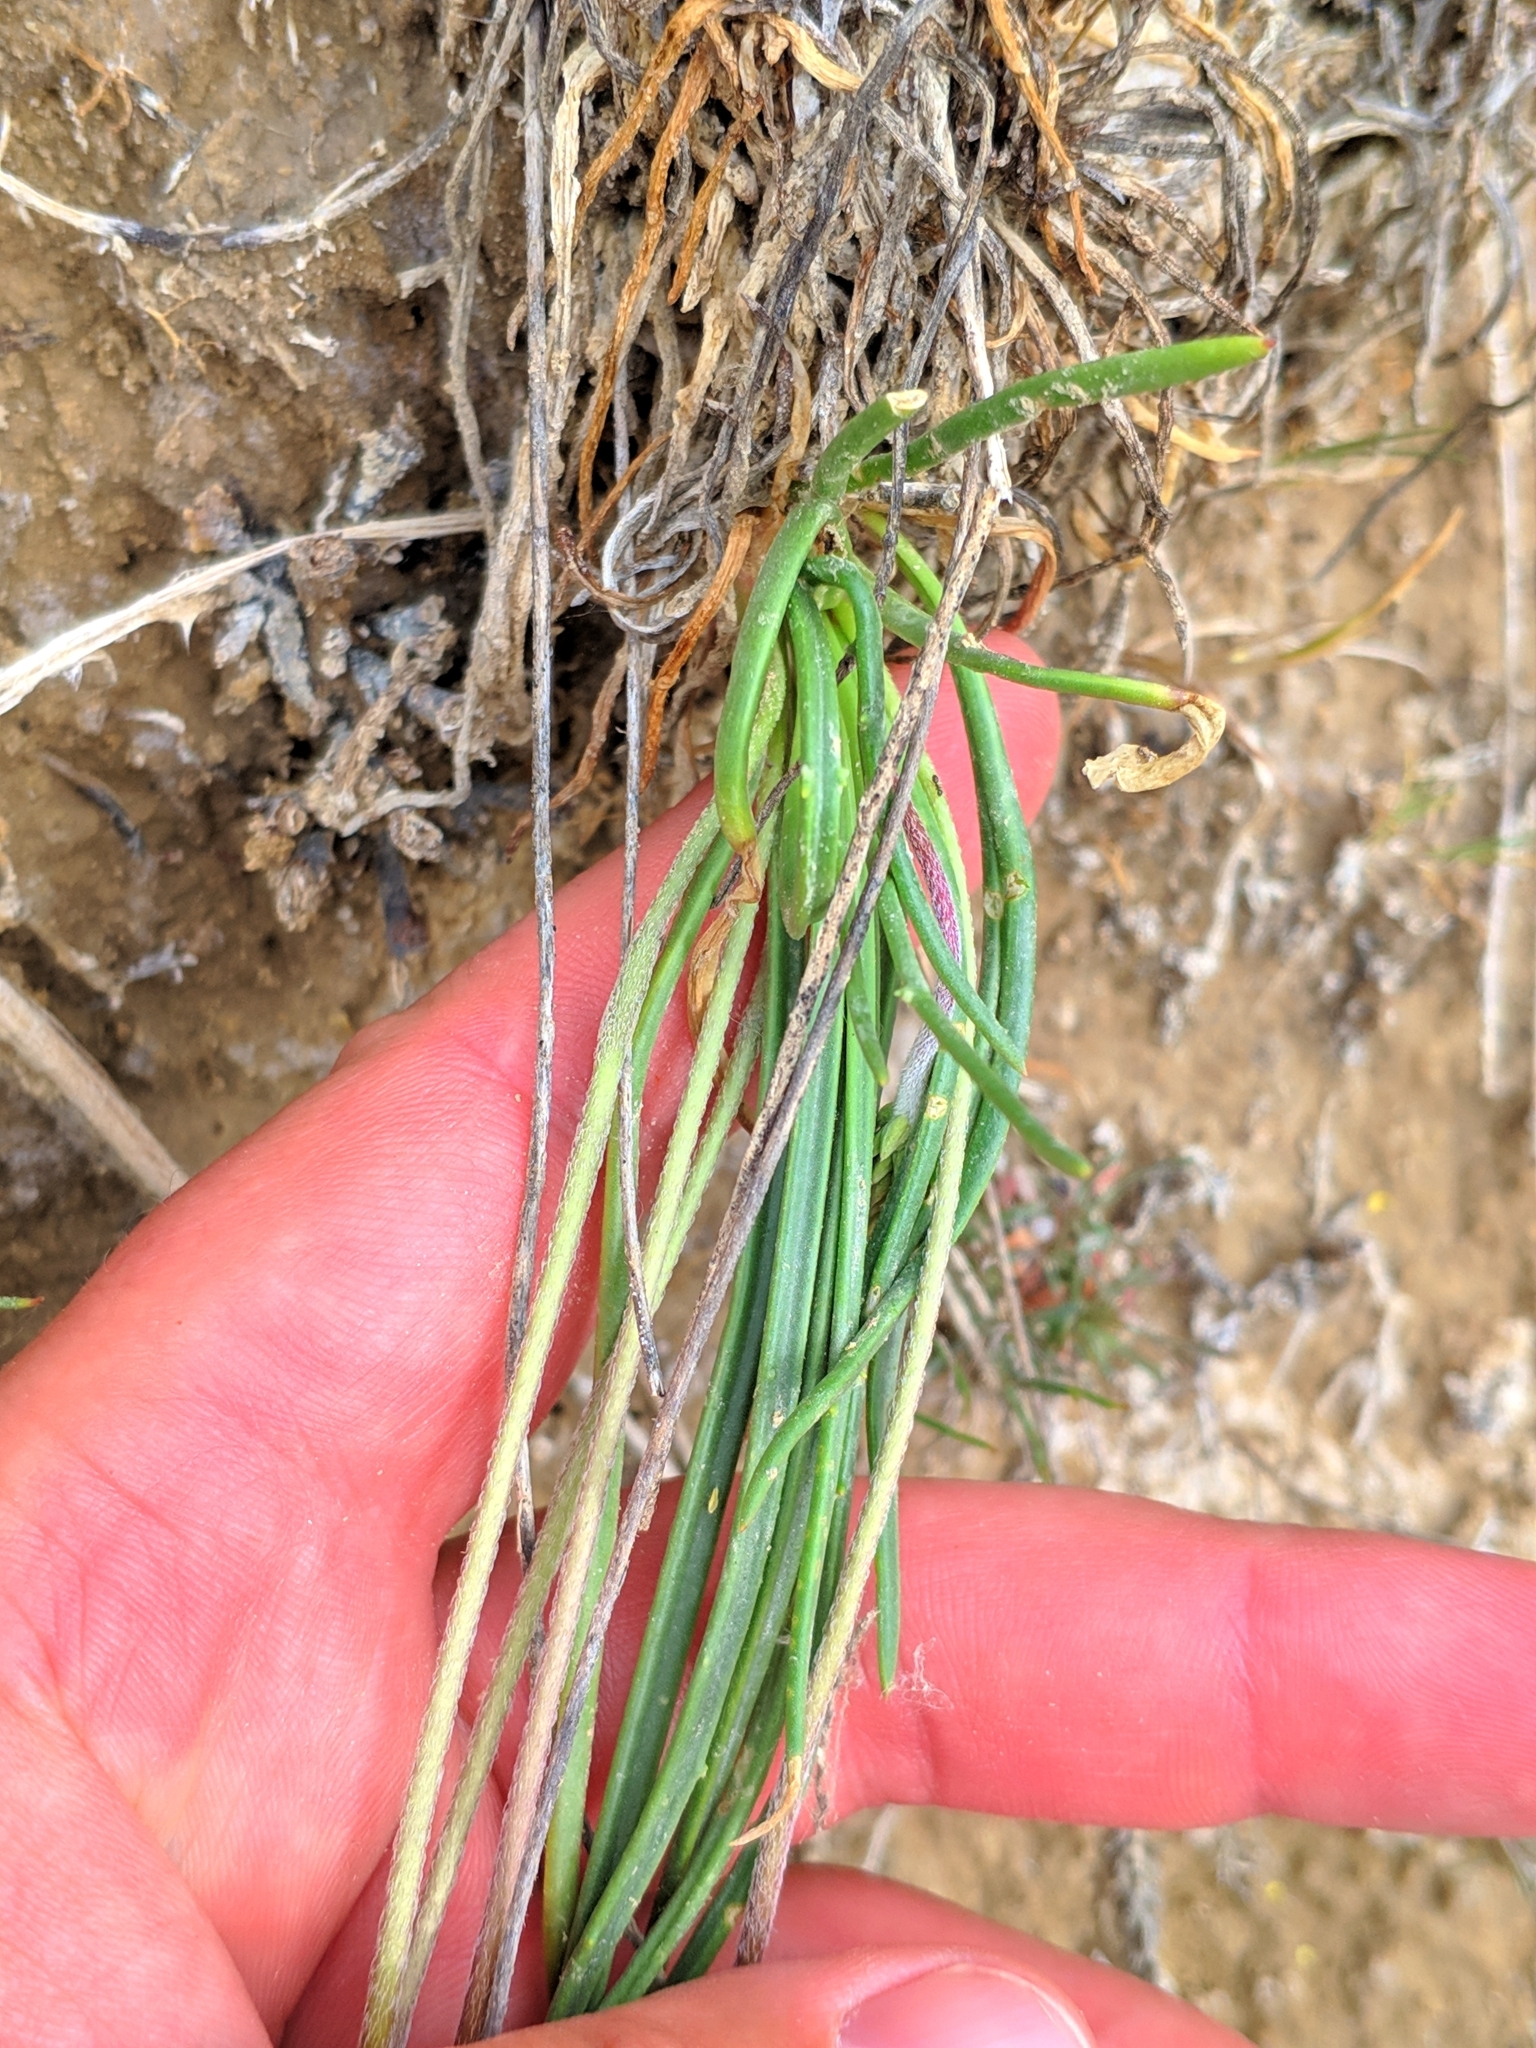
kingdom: Plantae
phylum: Tracheophyta
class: Magnoliopsida
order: Lamiales
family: Plantaginaceae
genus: Plantago
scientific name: Plantago maritima
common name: Sea plantain
